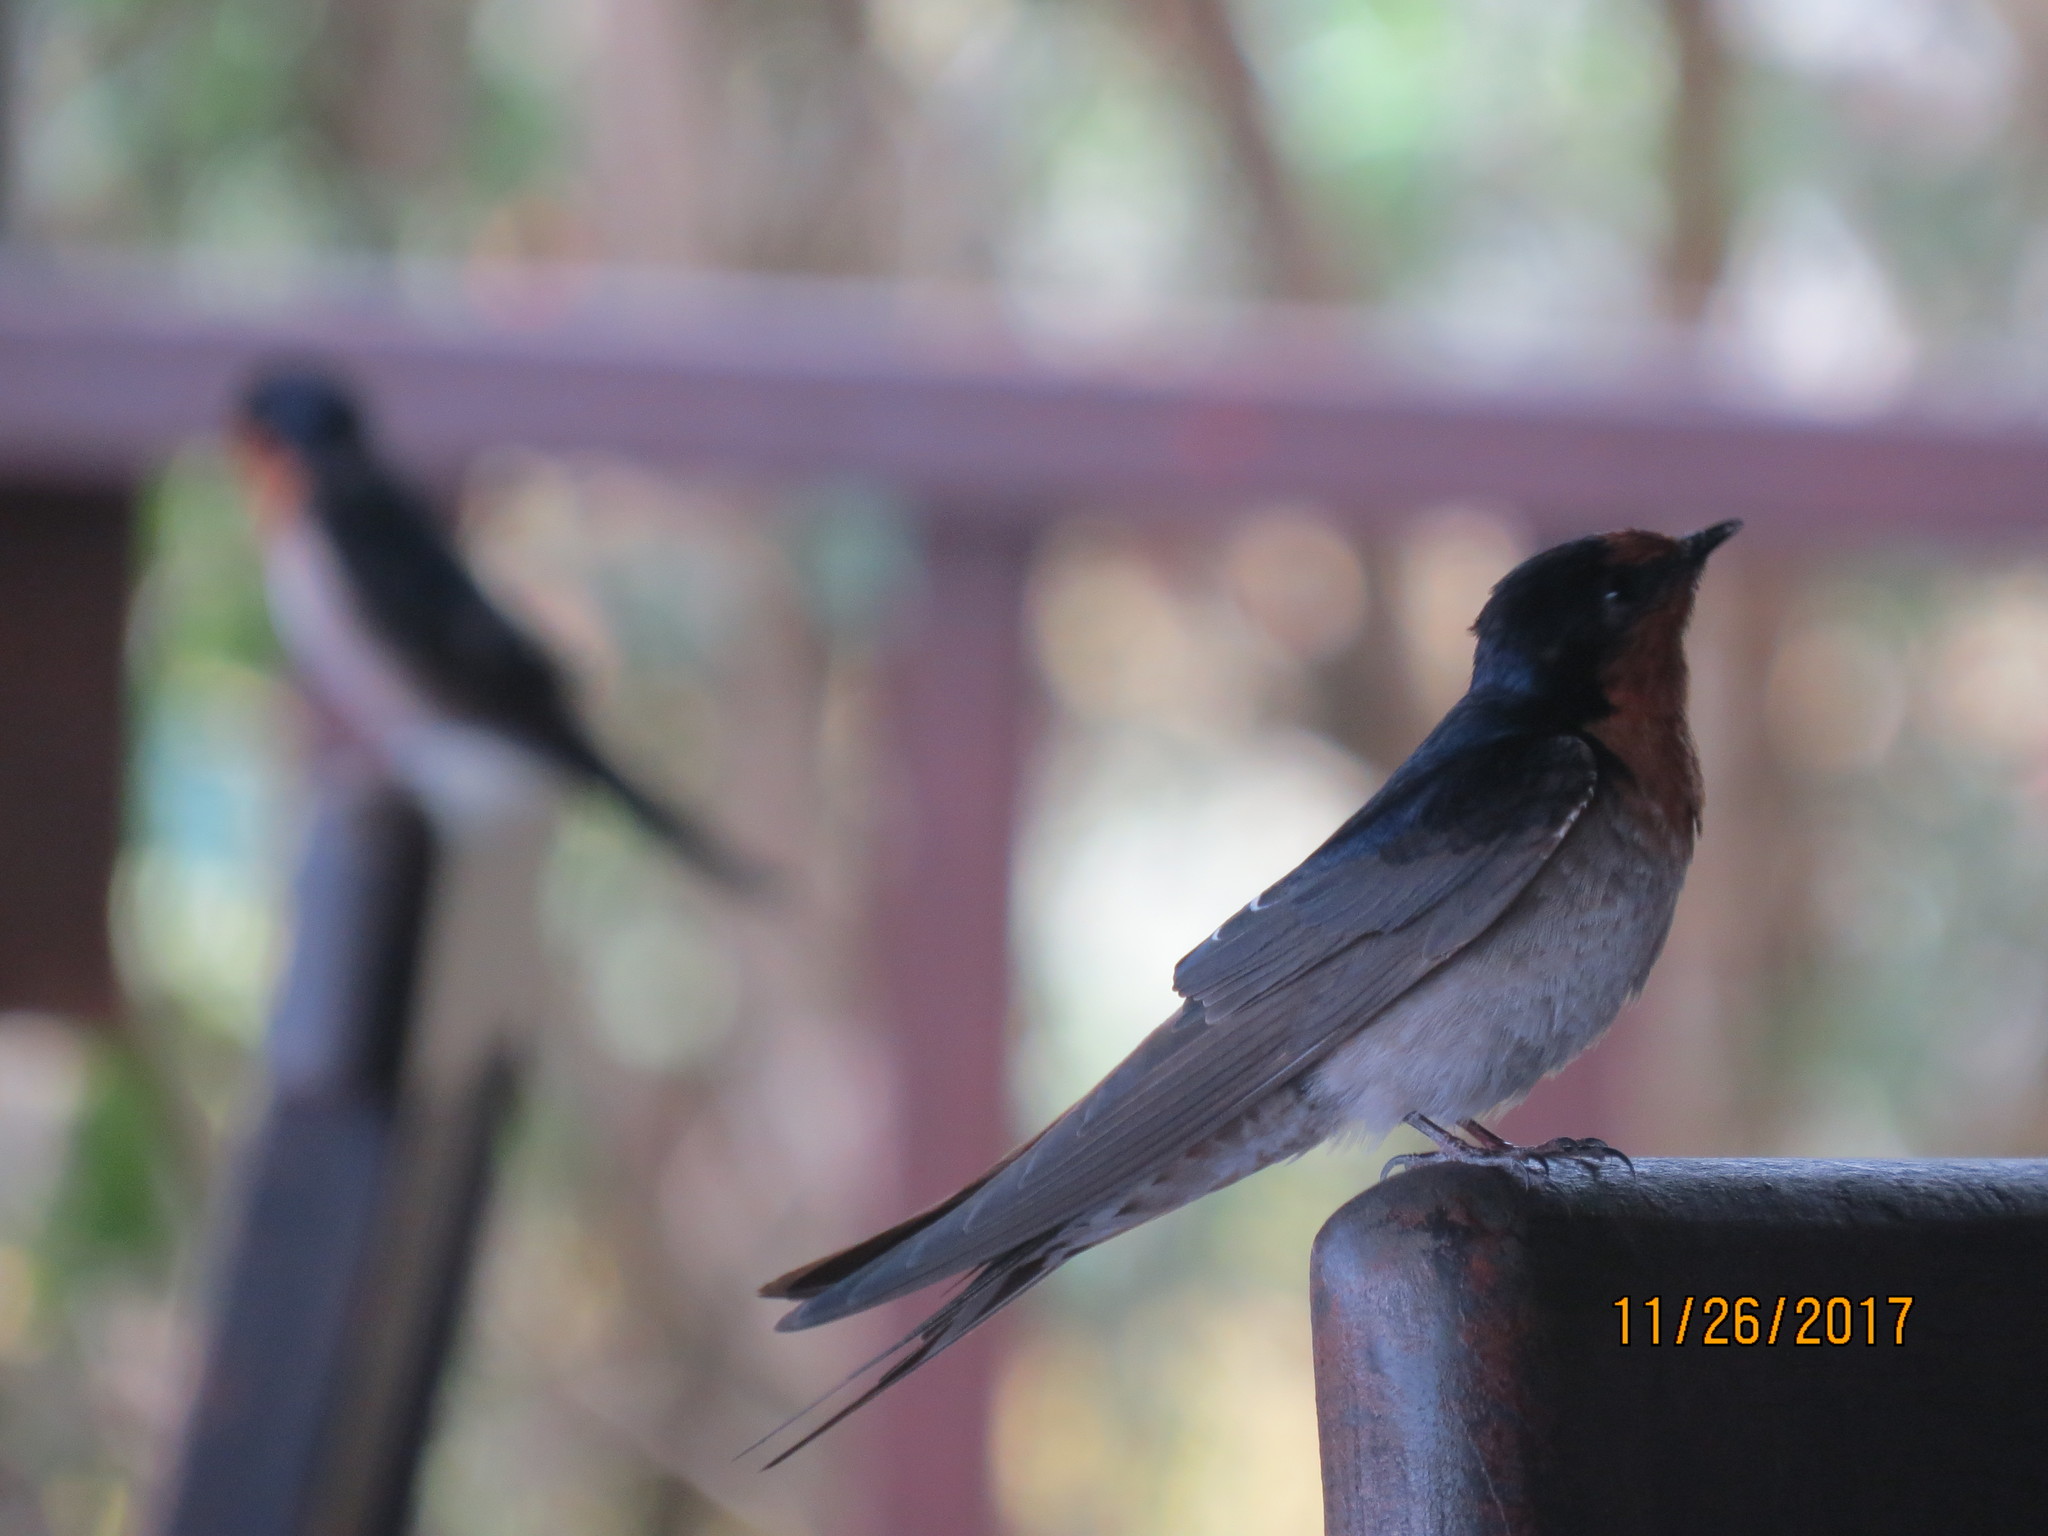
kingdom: Animalia
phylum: Chordata
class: Aves
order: Passeriformes
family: Hirundinidae
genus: Hirundo
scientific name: Hirundo neoxena
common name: Welcome swallow
